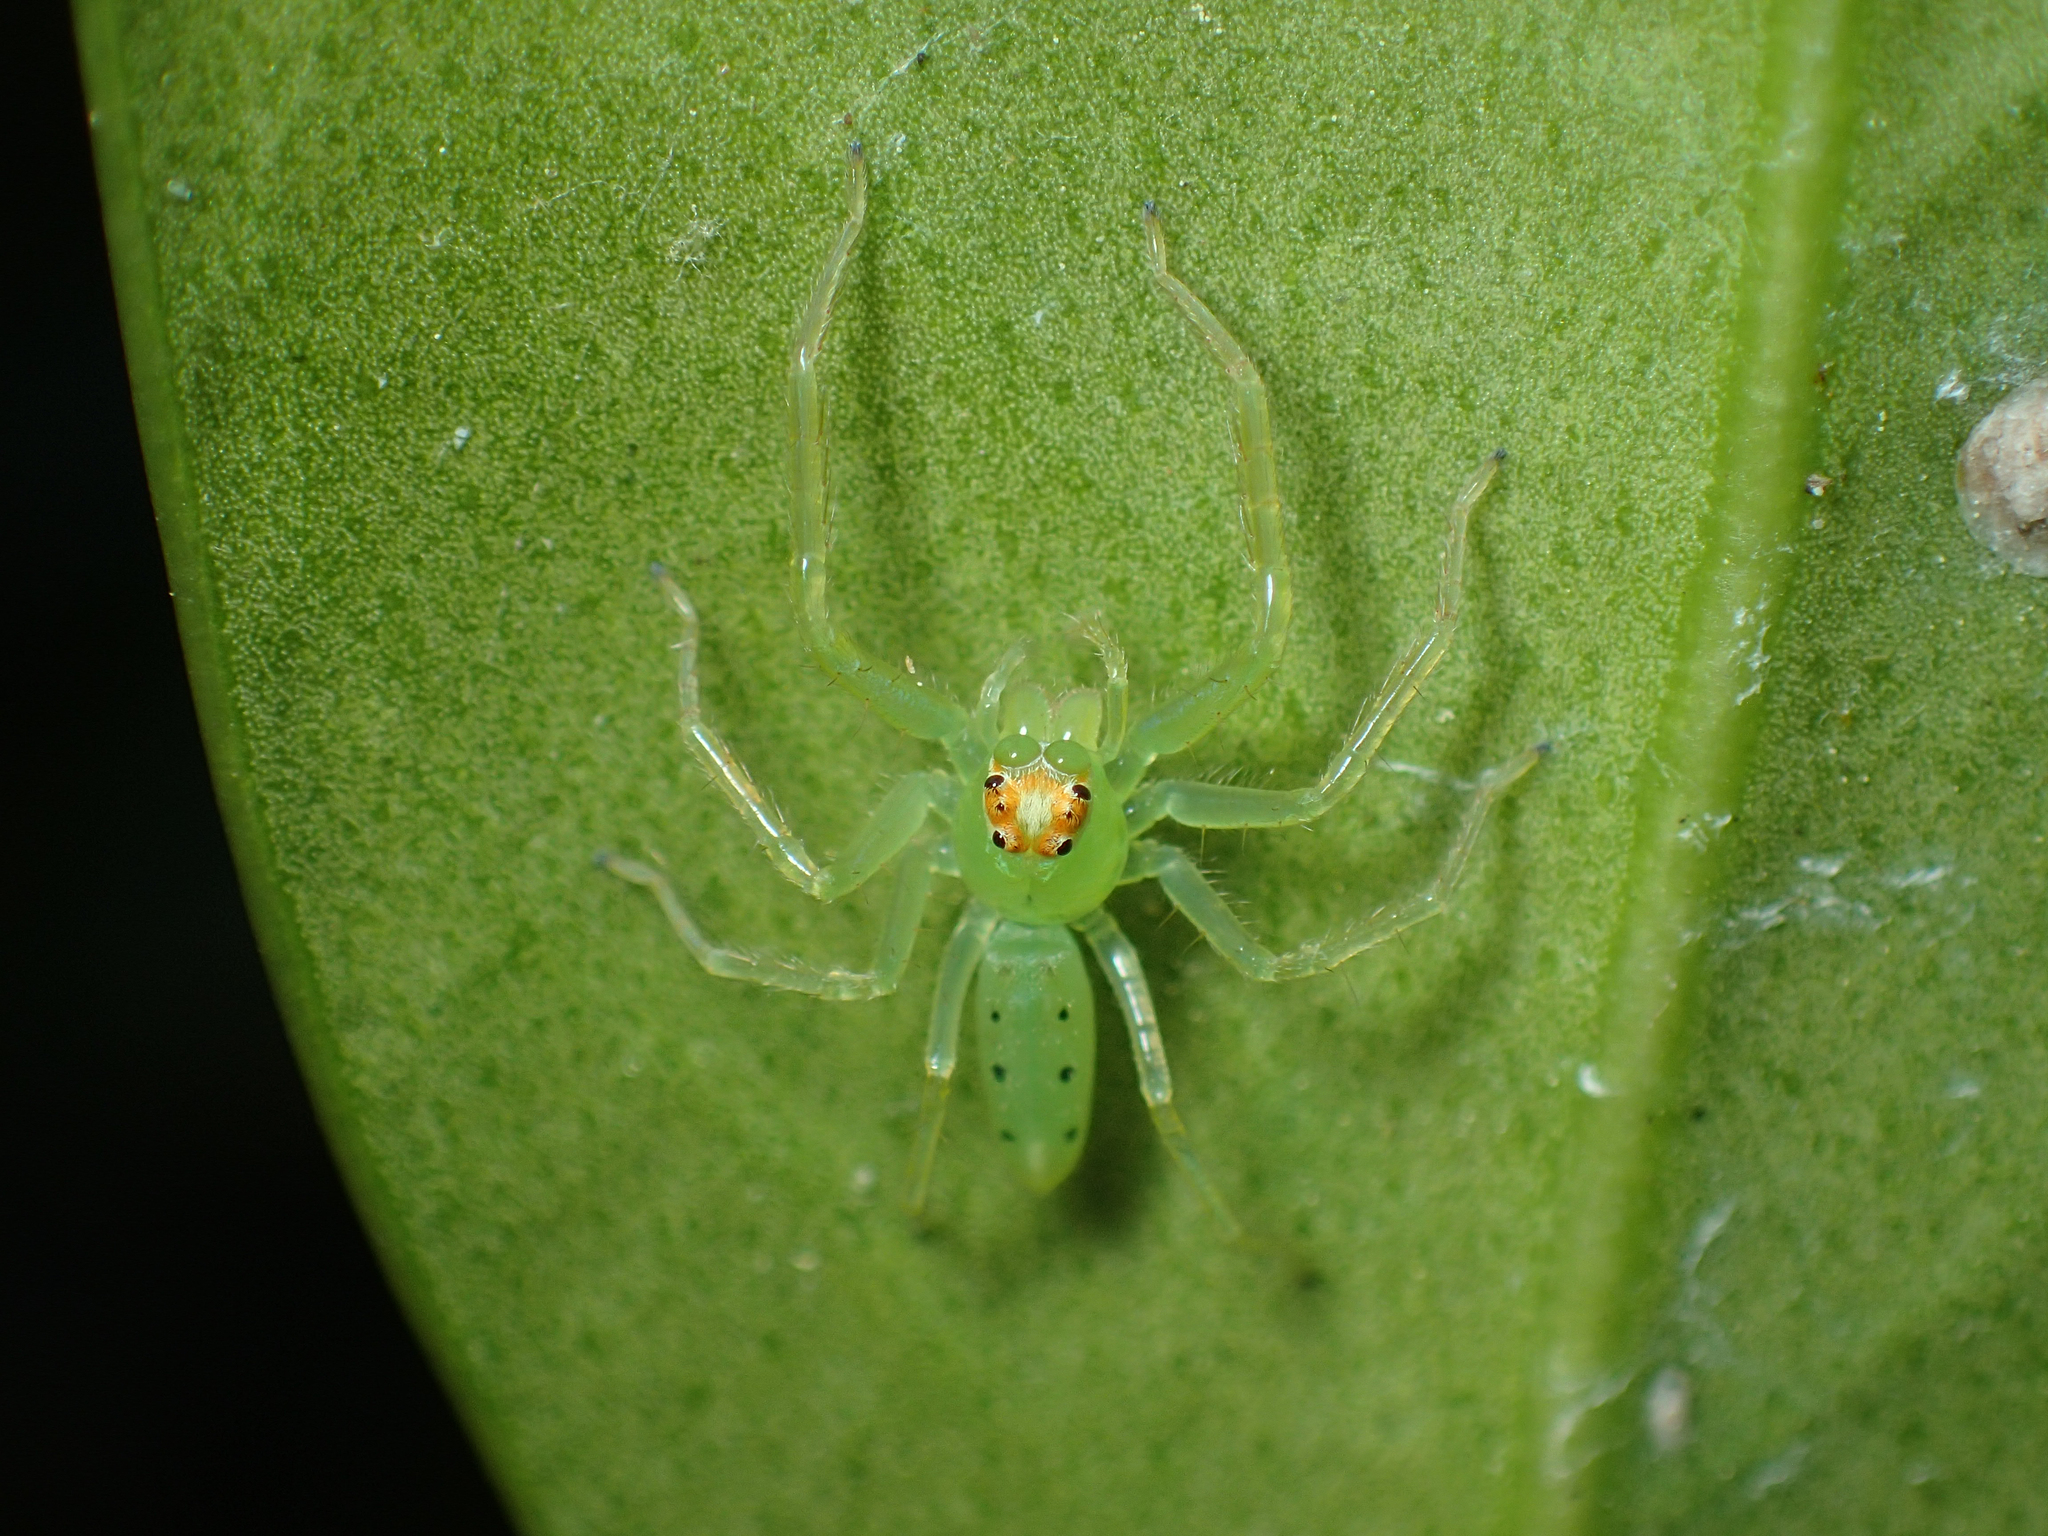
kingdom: Animalia
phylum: Arthropoda
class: Arachnida
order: Araneae
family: Salticidae
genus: Lyssomanes
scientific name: Lyssomanes viridis
